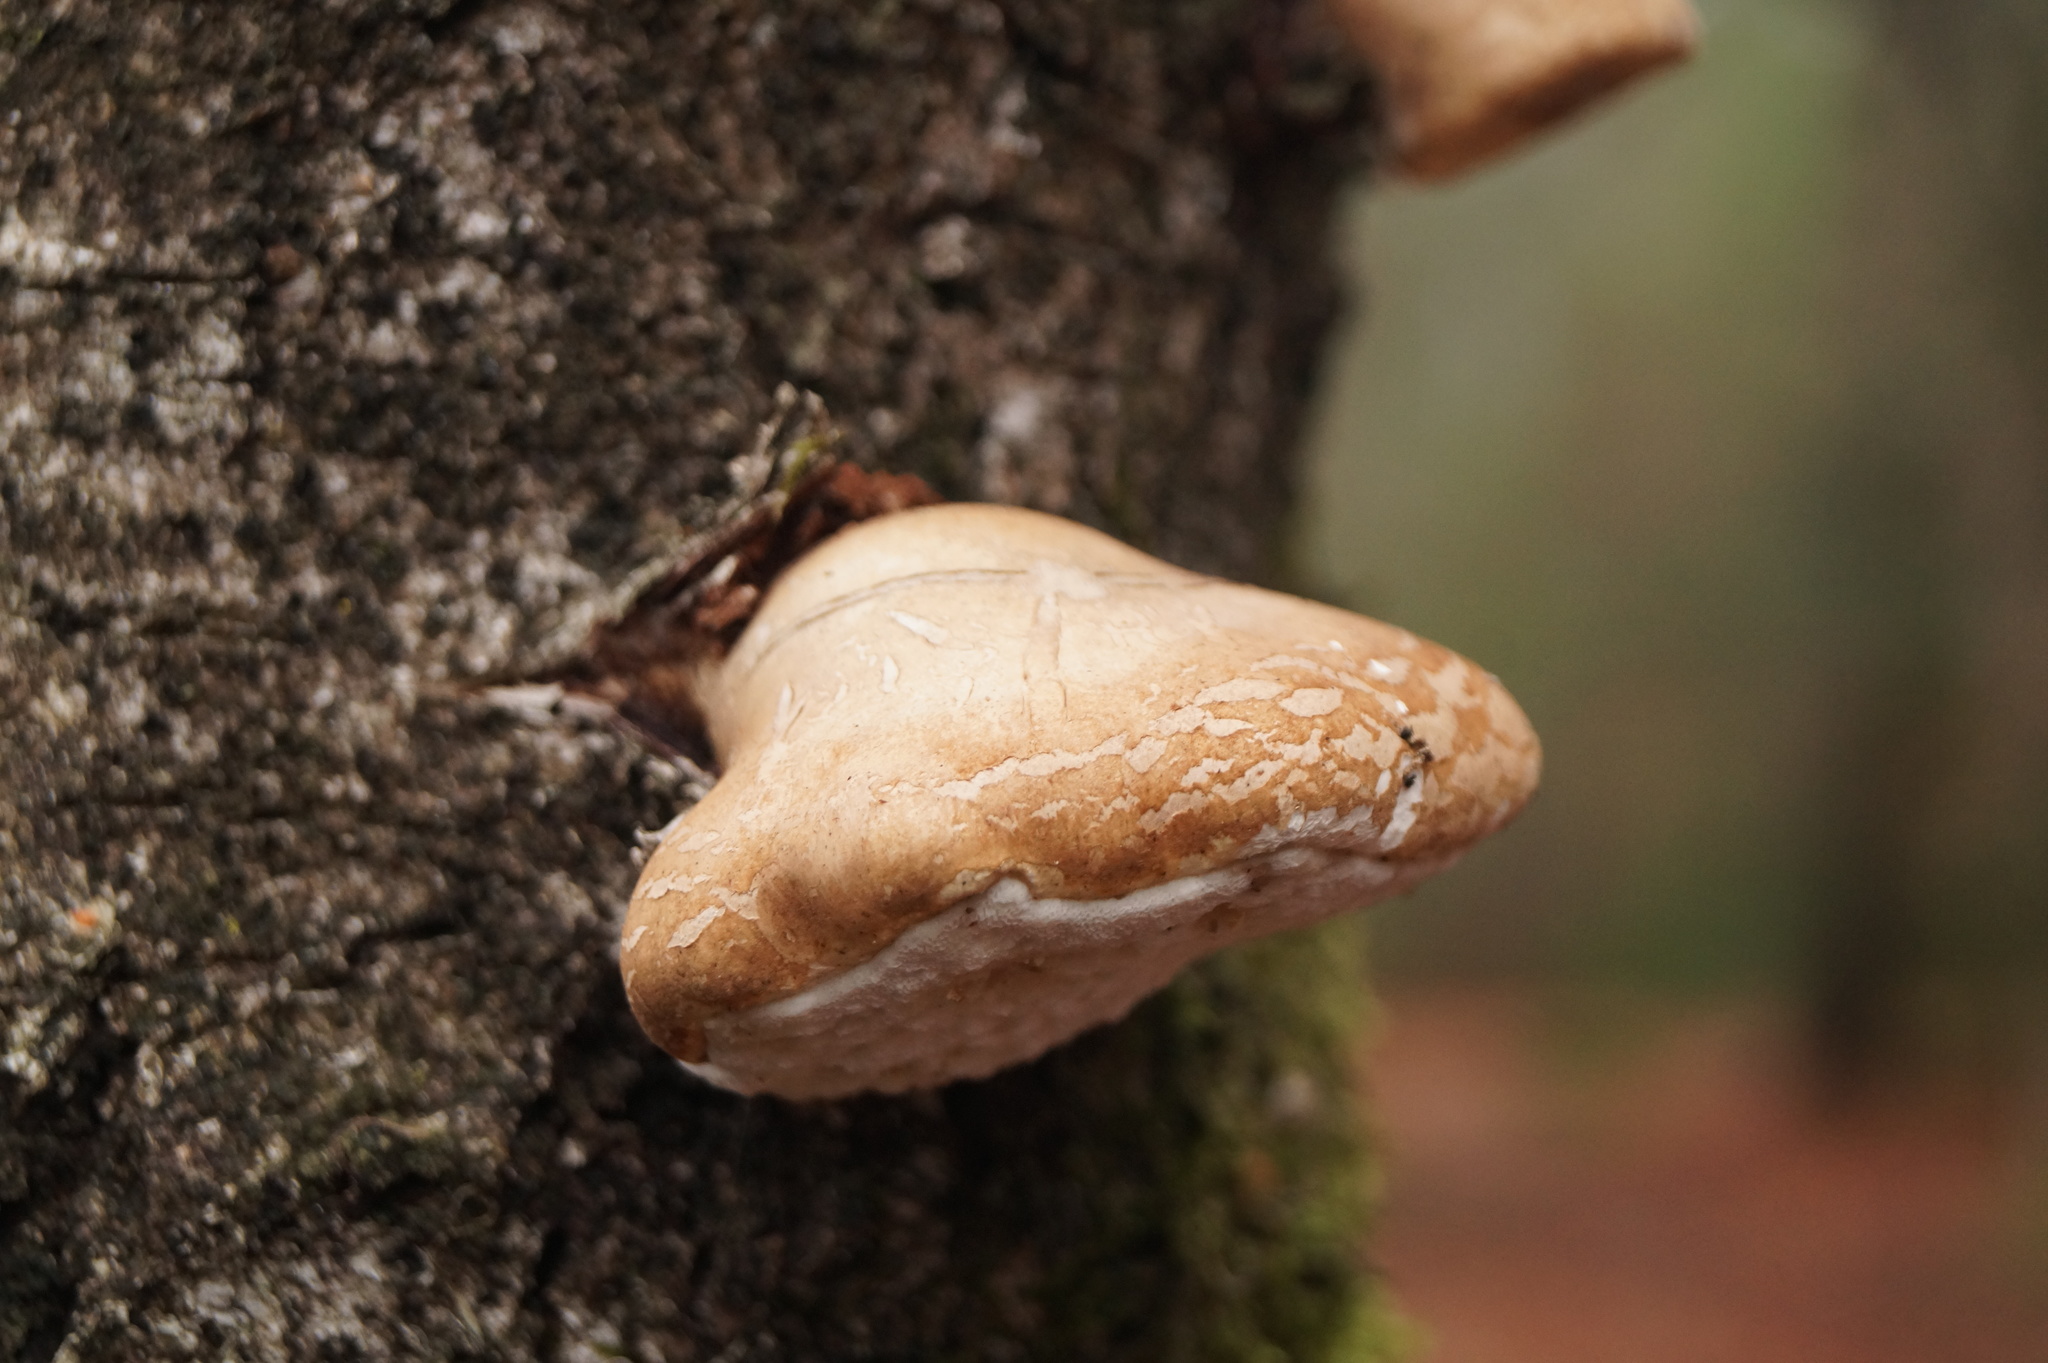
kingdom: Fungi
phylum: Basidiomycota
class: Agaricomycetes
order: Polyporales
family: Fomitopsidaceae
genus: Fomitopsis
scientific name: Fomitopsis betulina
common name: Birch polypore
